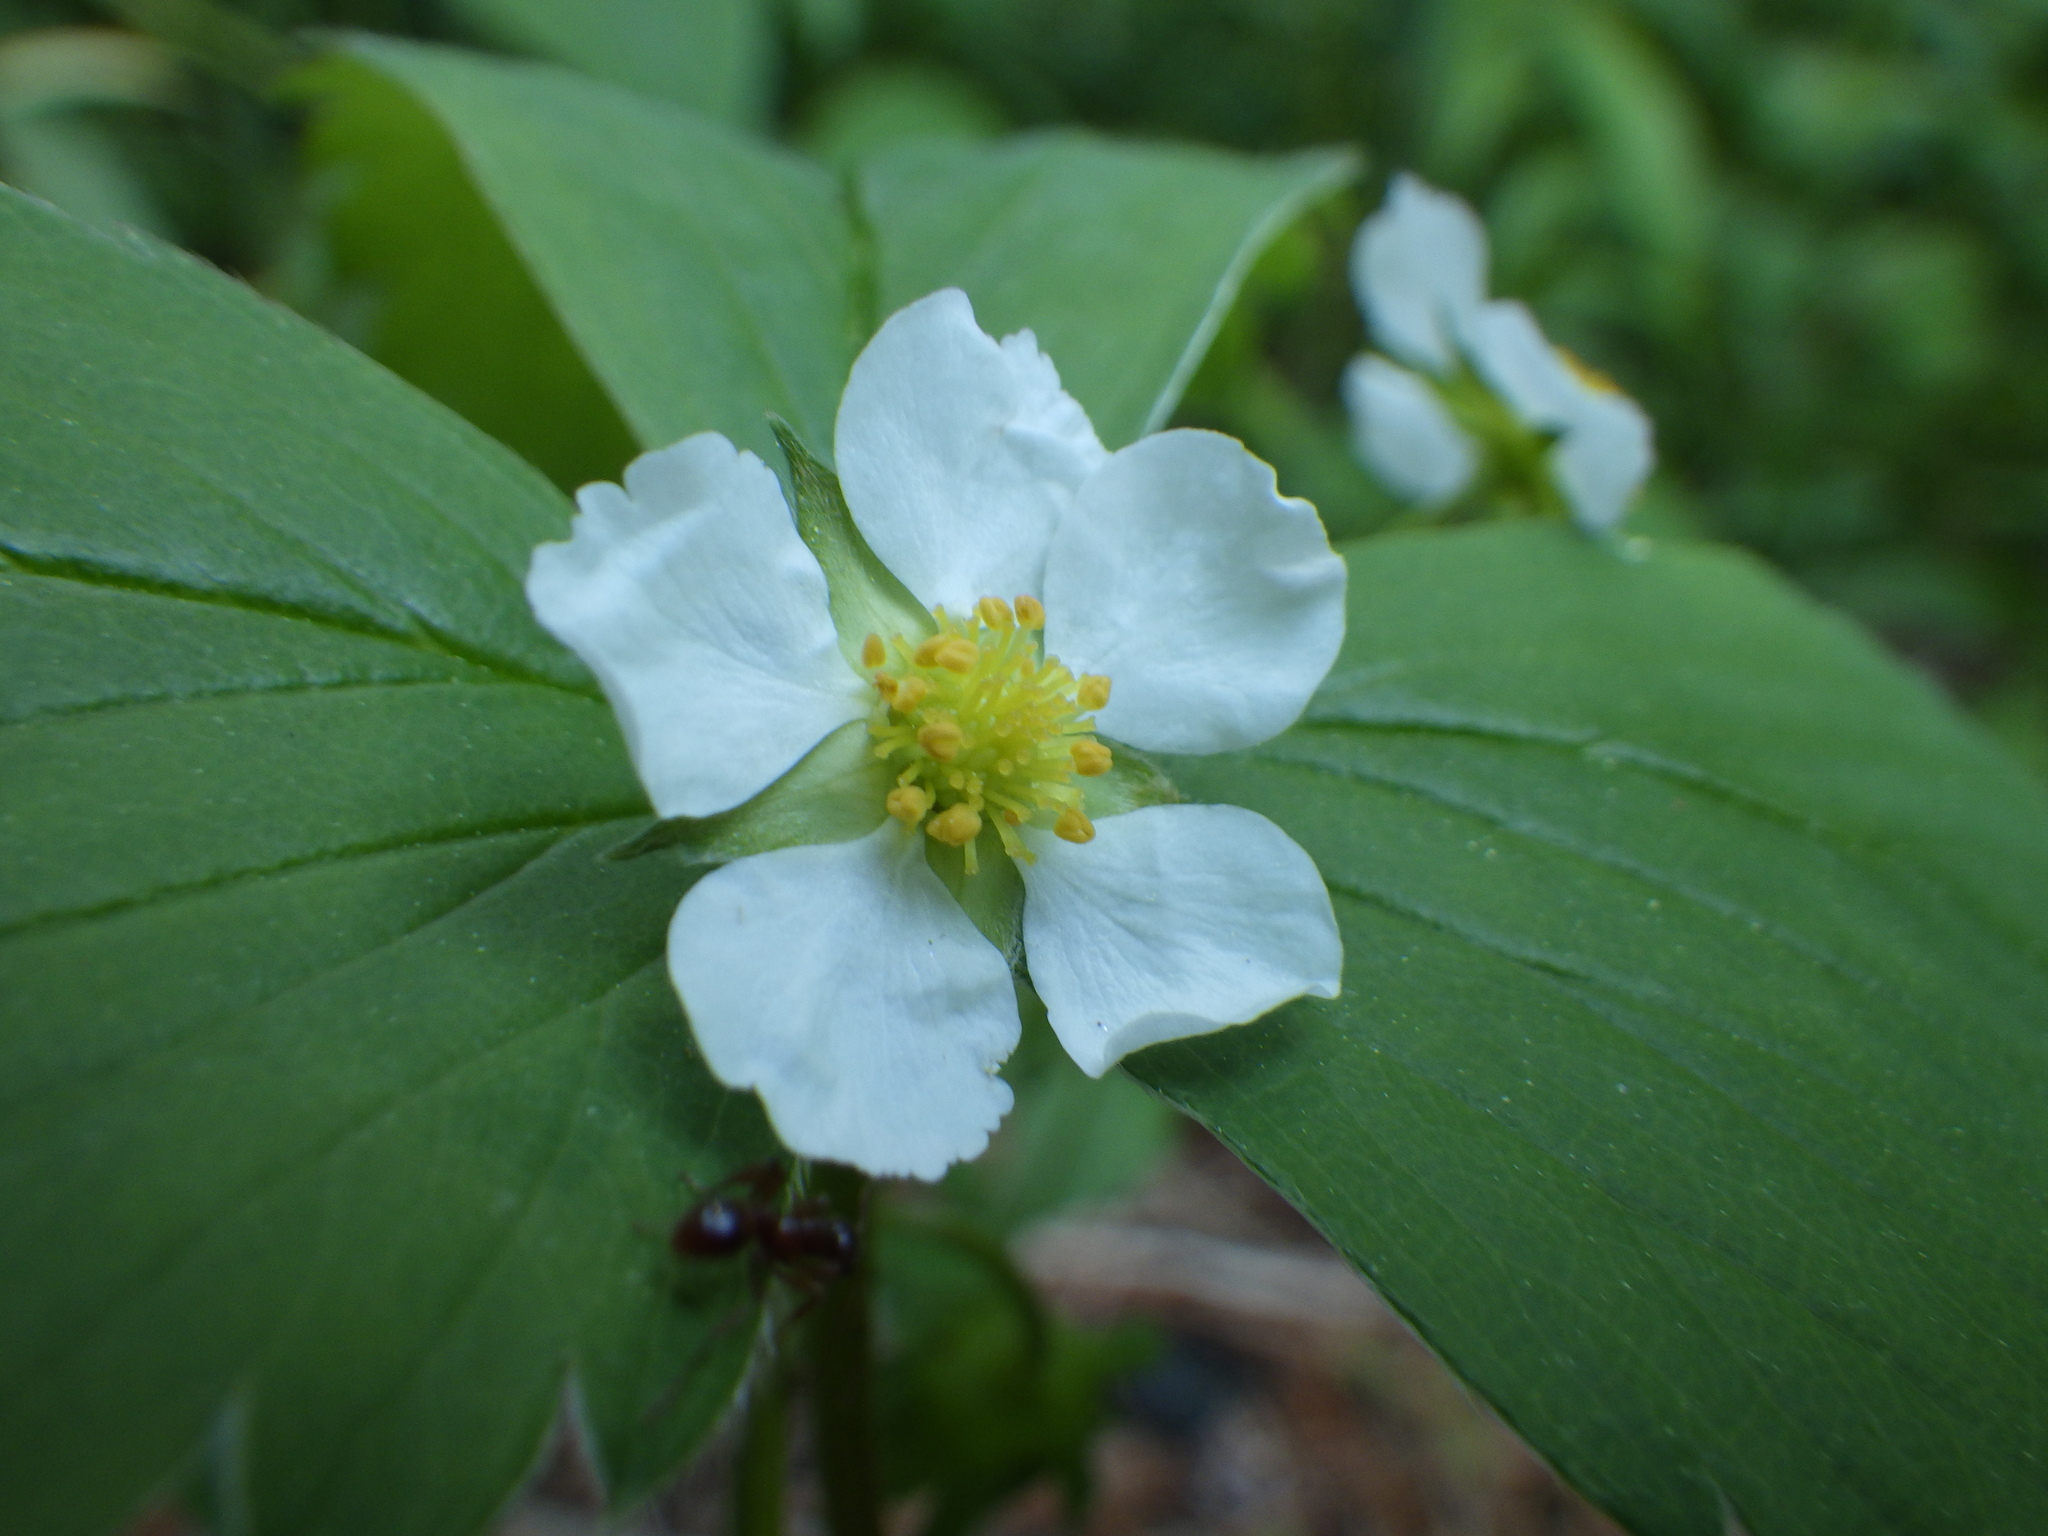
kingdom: Plantae
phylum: Tracheophyta
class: Magnoliopsida
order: Rosales
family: Rosaceae
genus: Fragaria
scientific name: Fragaria virginiana
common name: Thickleaved wild strawberry
